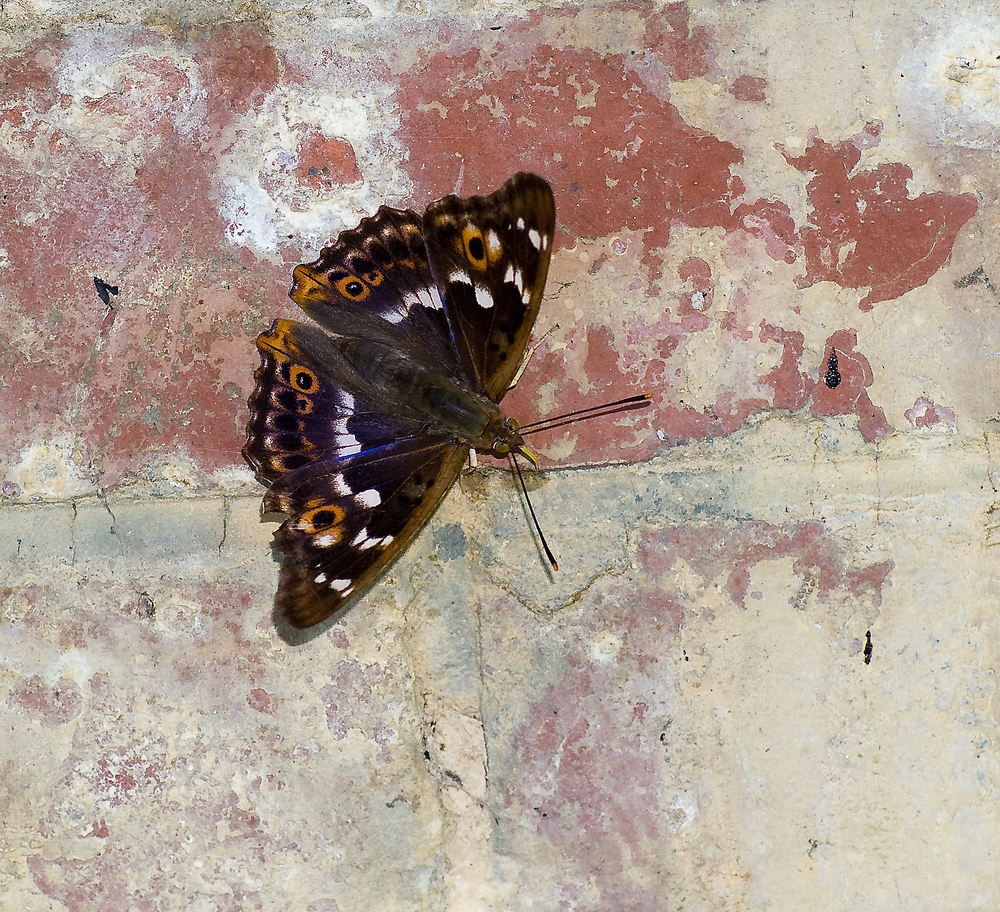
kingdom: Animalia
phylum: Arthropoda
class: Insecta
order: Lepidoptera
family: Nymphalidae
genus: Apatura
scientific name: Apatura ilia
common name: Lesser purple emperor
